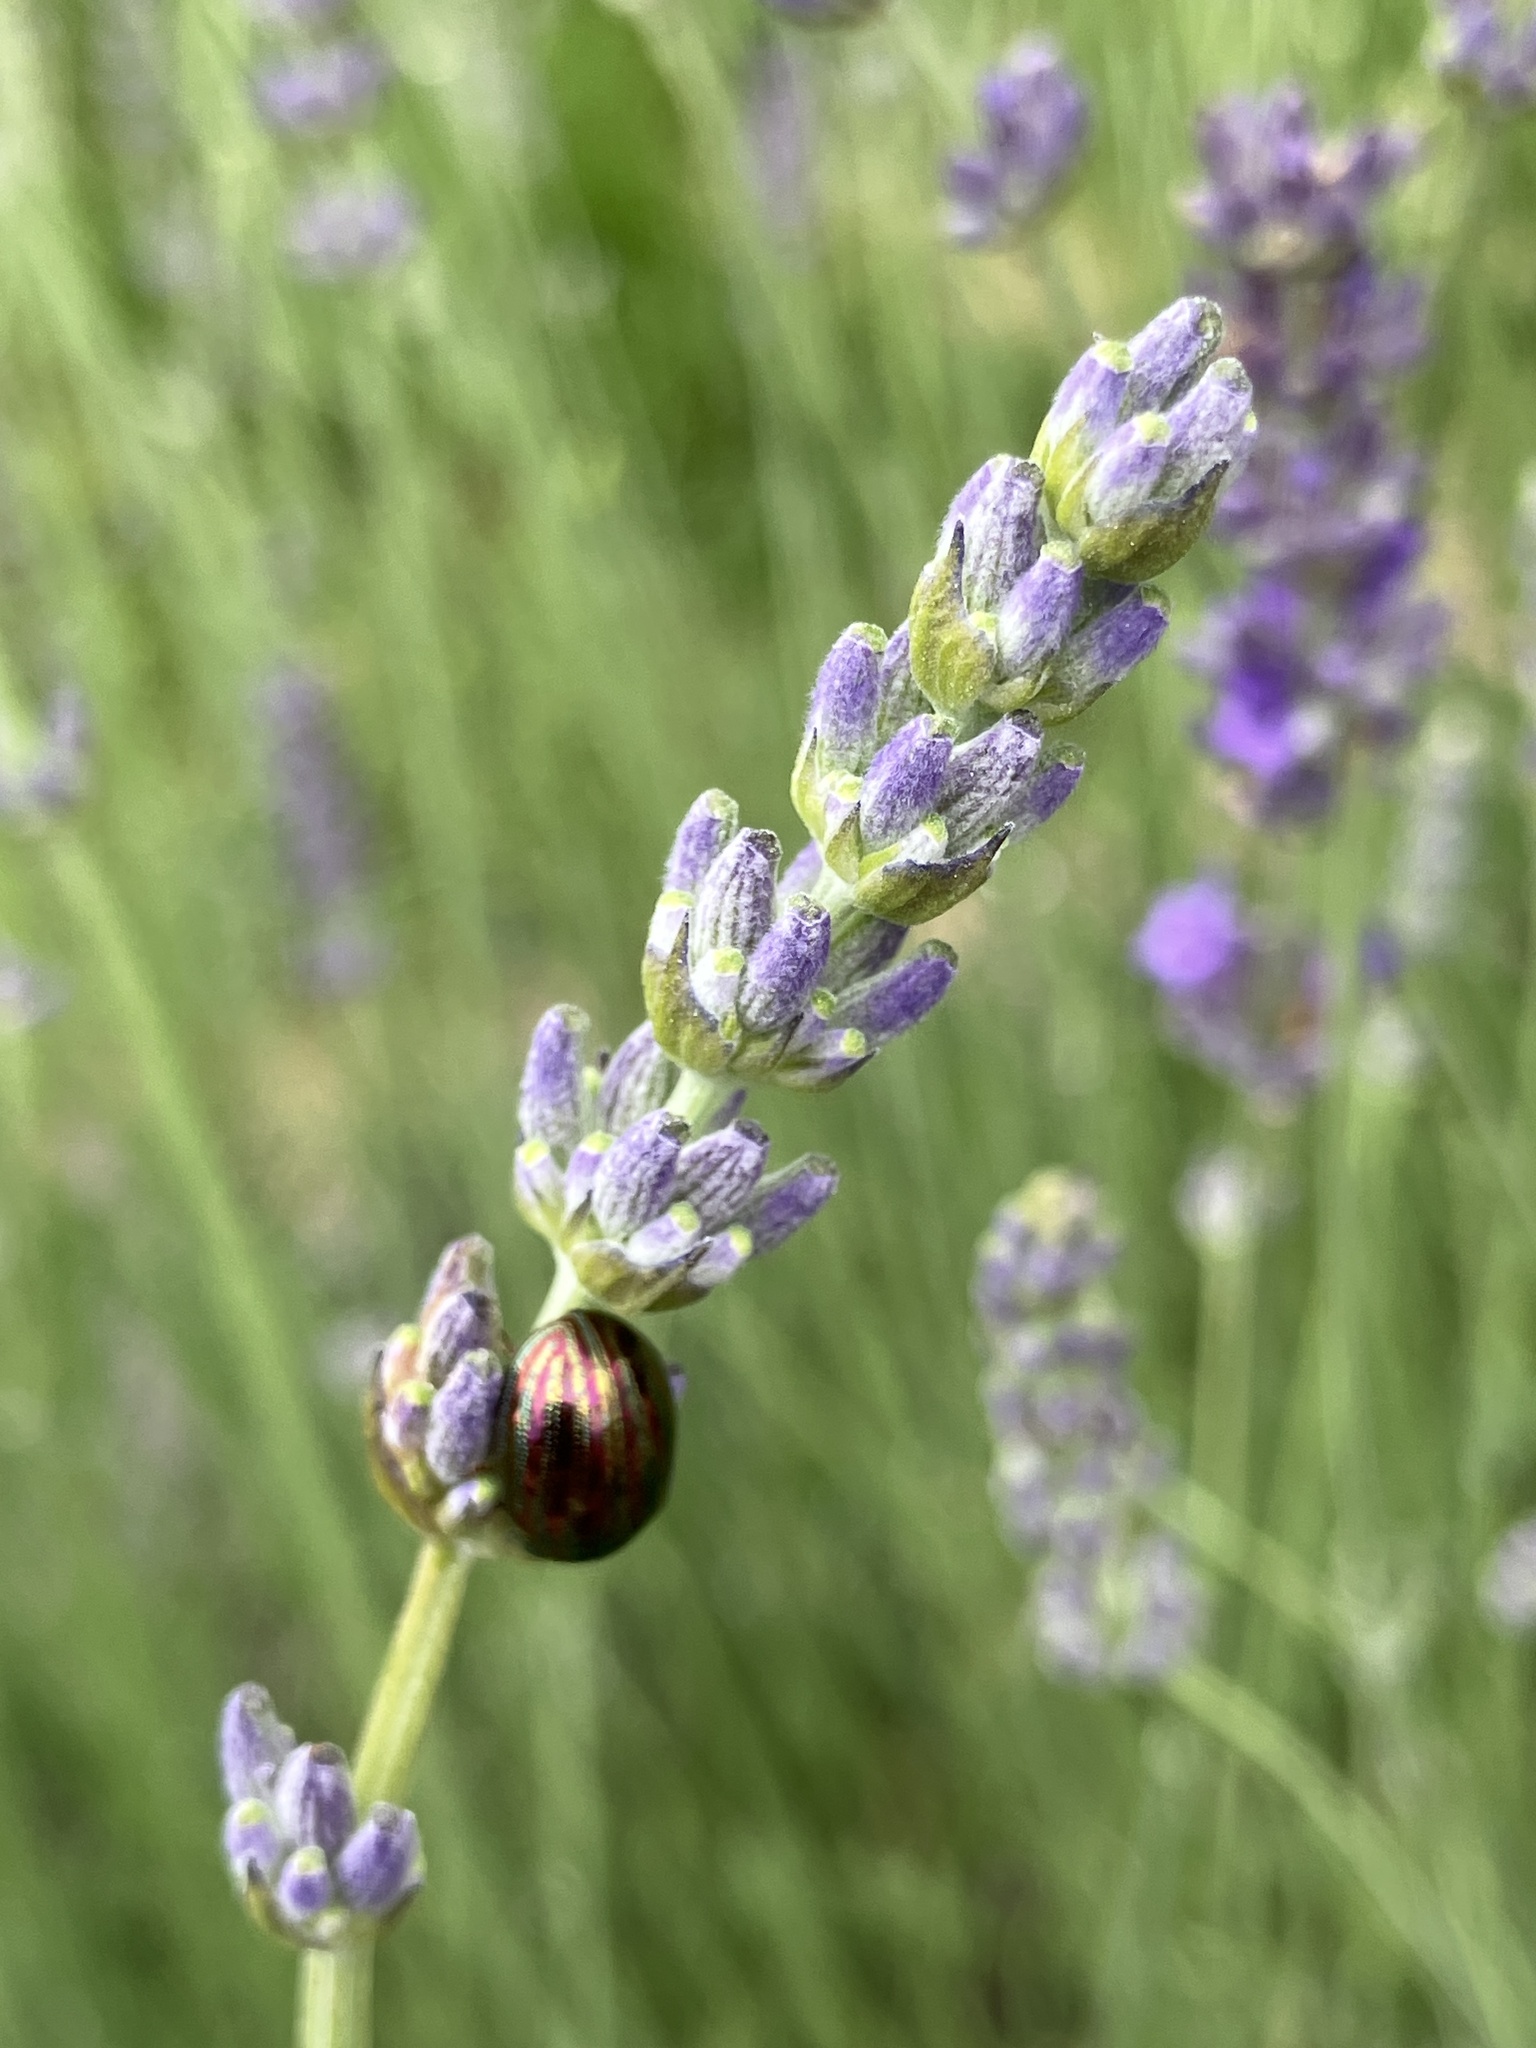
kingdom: Animalia
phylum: Arthropoda
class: Insecta
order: Coleoptera
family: Chrysomelidae
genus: Chrysolina
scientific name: Chrysolina americana
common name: Rosemary beetle
